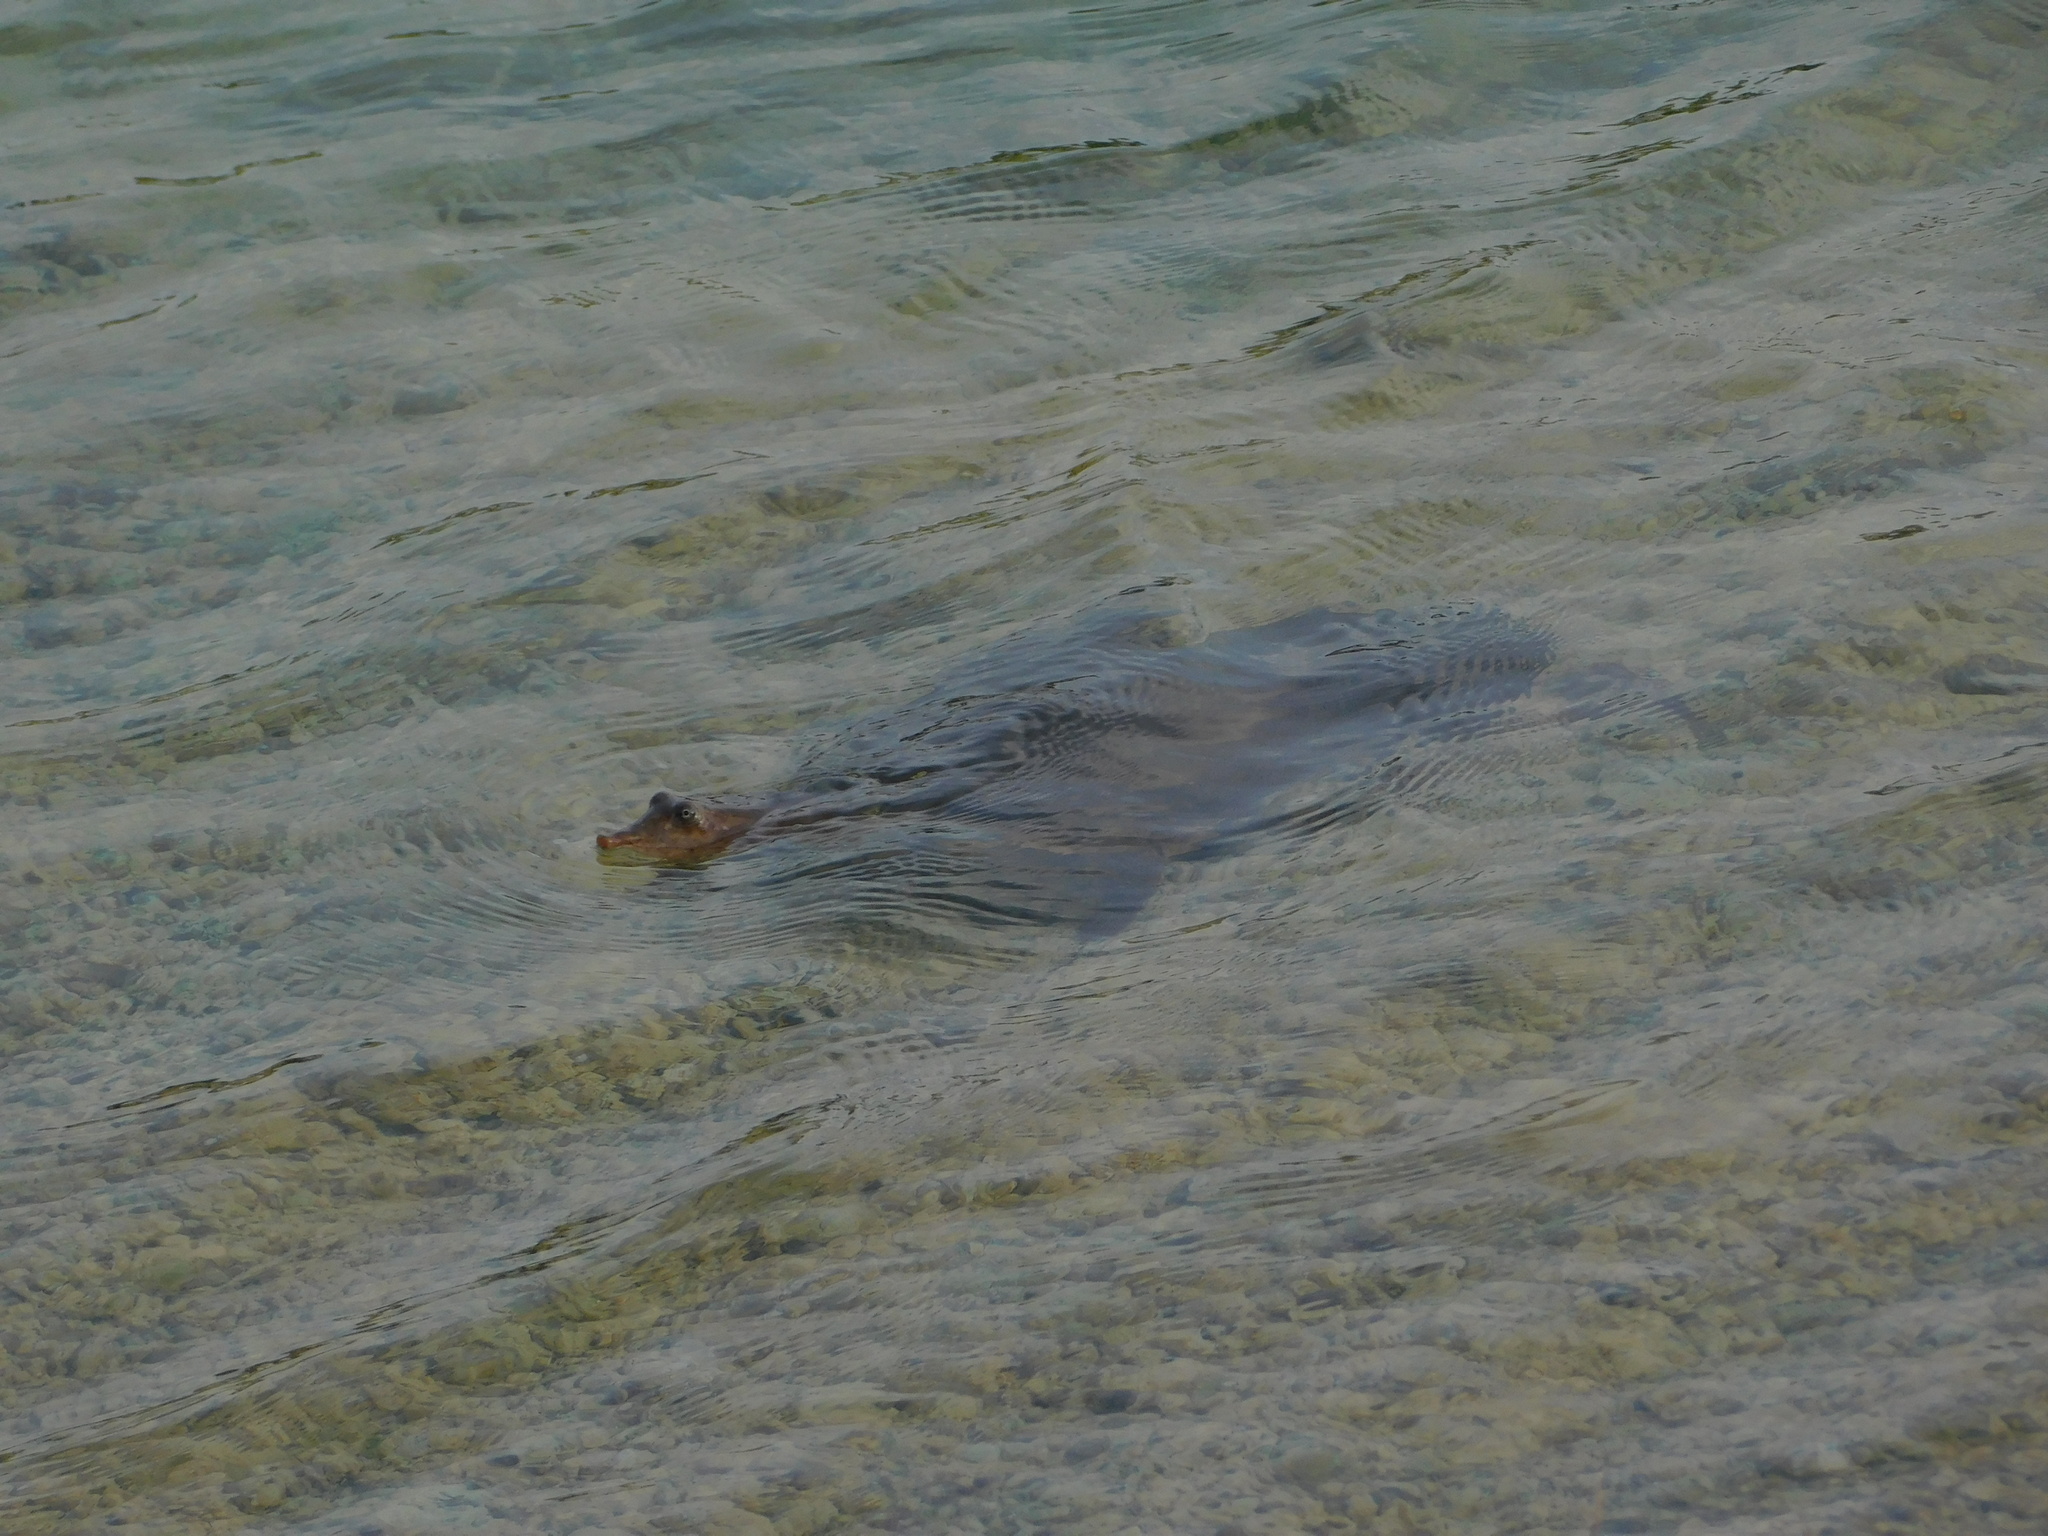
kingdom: Animalia
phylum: Chordata
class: Testudines
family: Trionychidae
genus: Apalone
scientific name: Apalone ferox
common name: Florida softshell turtle
